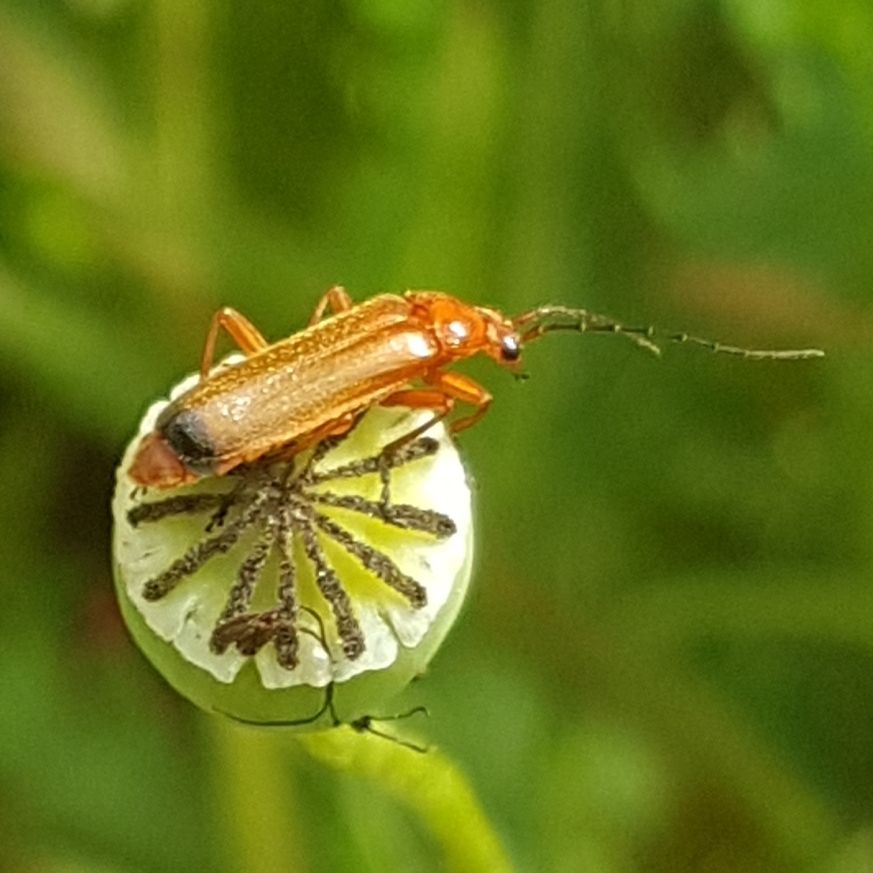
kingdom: Animalia
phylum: Arthropoda
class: Insecta
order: Coleoptera
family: Cantharidae
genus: Rhagonycha
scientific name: Rhagonycha fulva
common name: Common red soldier beetle
